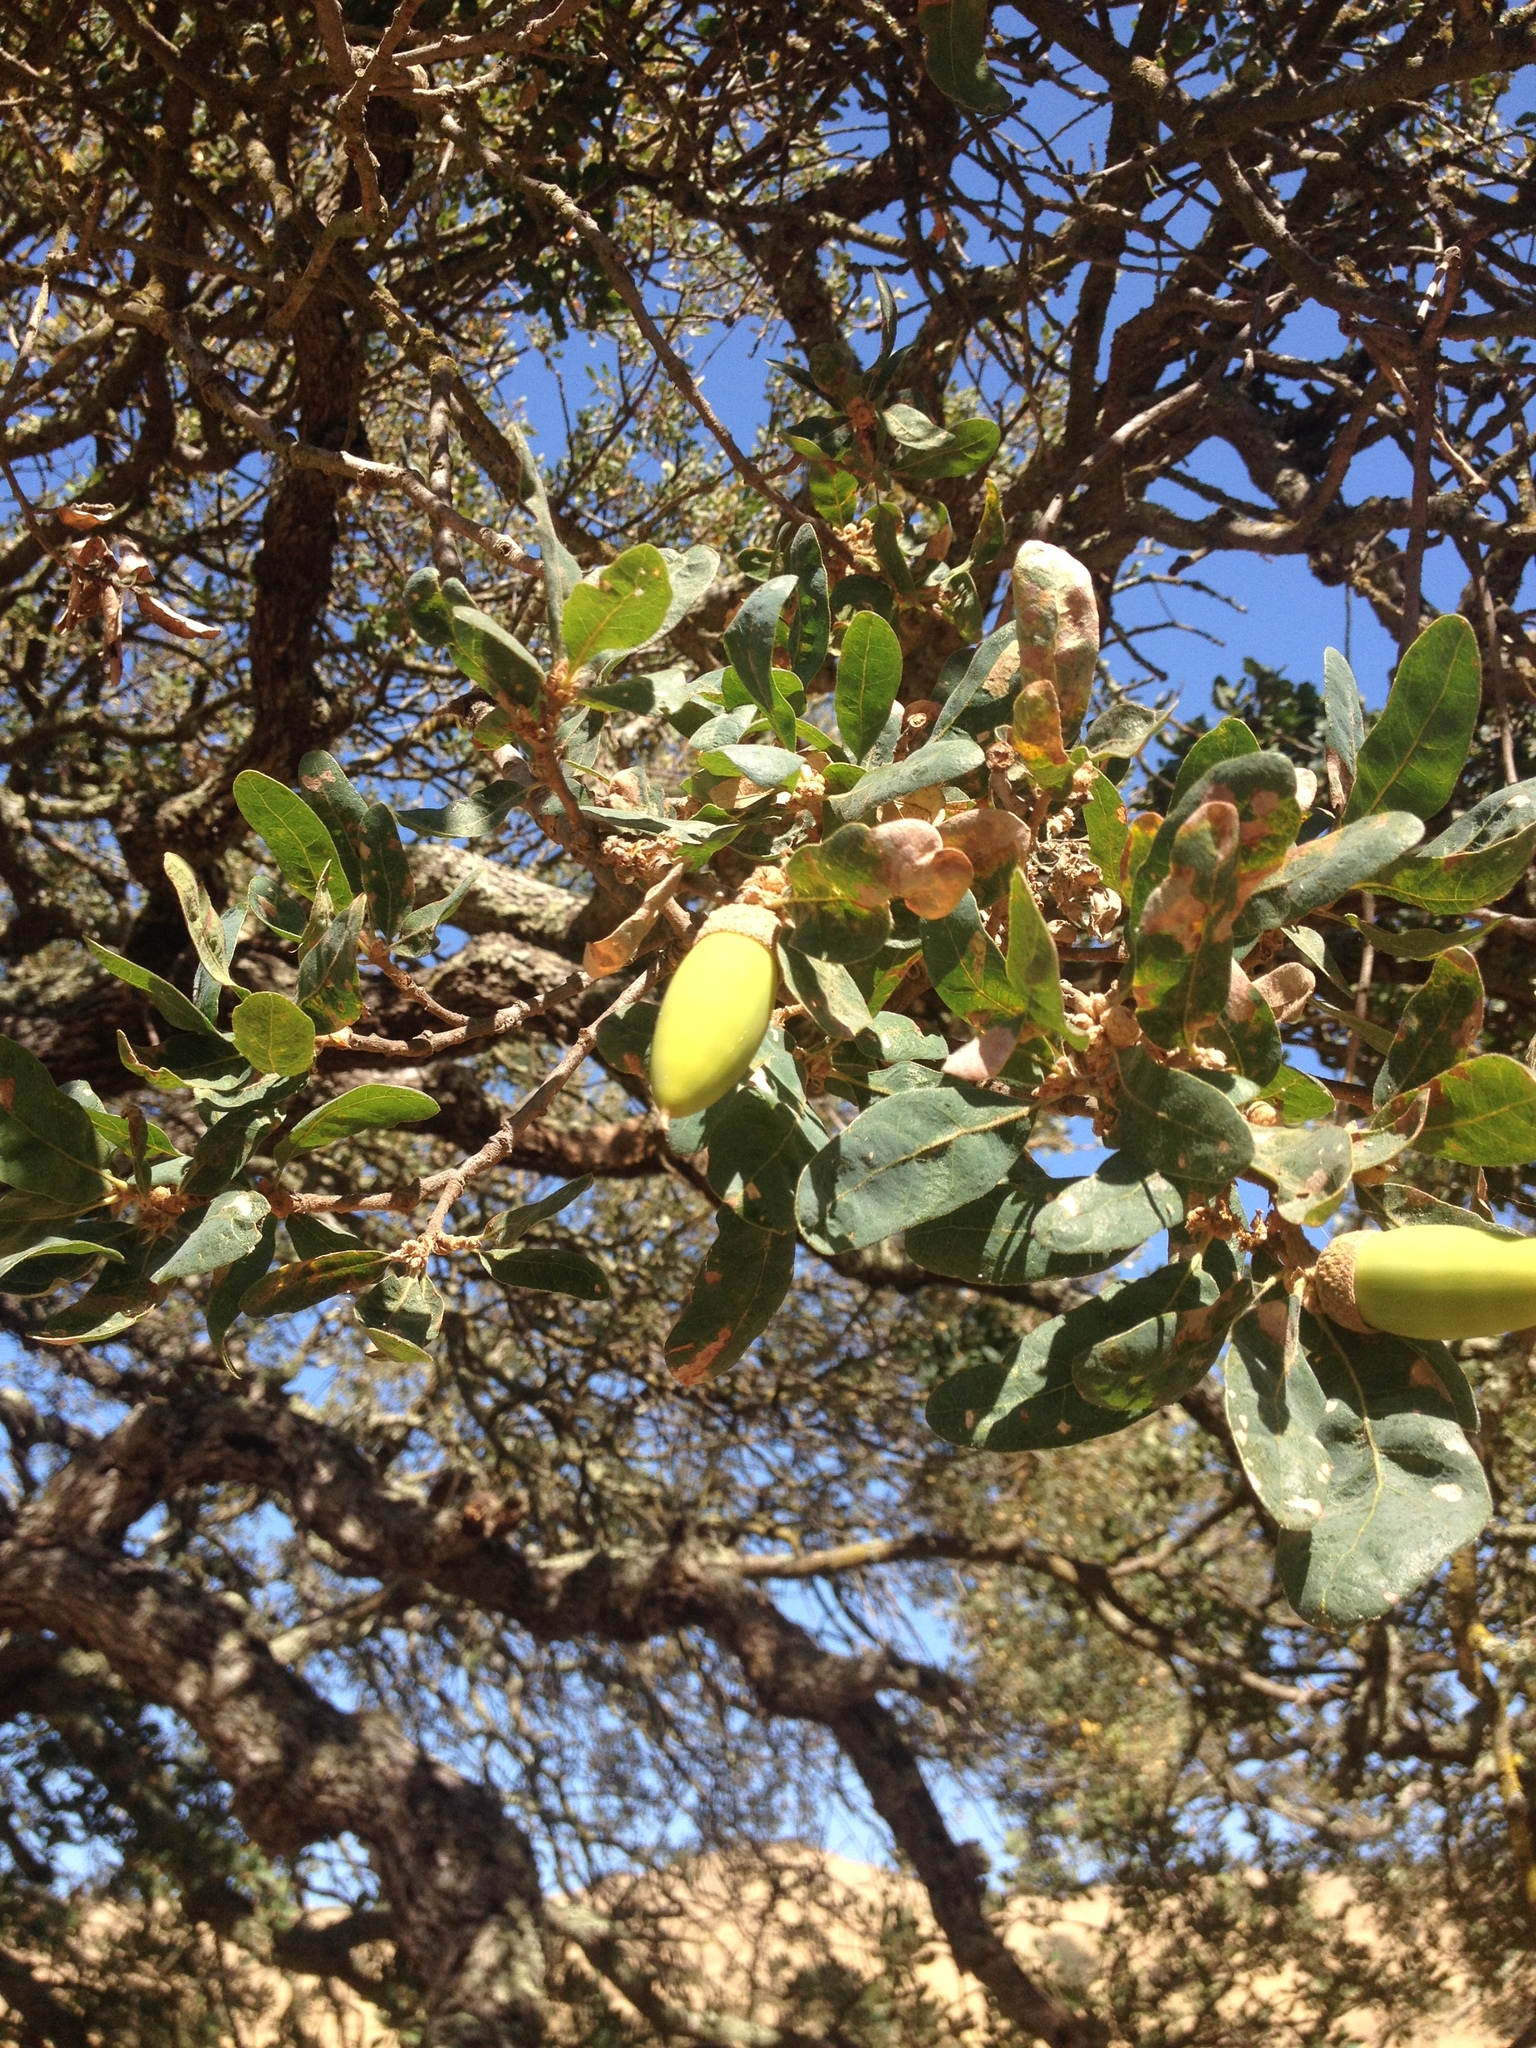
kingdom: Plantae
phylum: Tracheophyta
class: Magnoliopsida
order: Fagales
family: Fagaceae
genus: Quercus
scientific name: Quercus douglasii
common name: Blue oak
